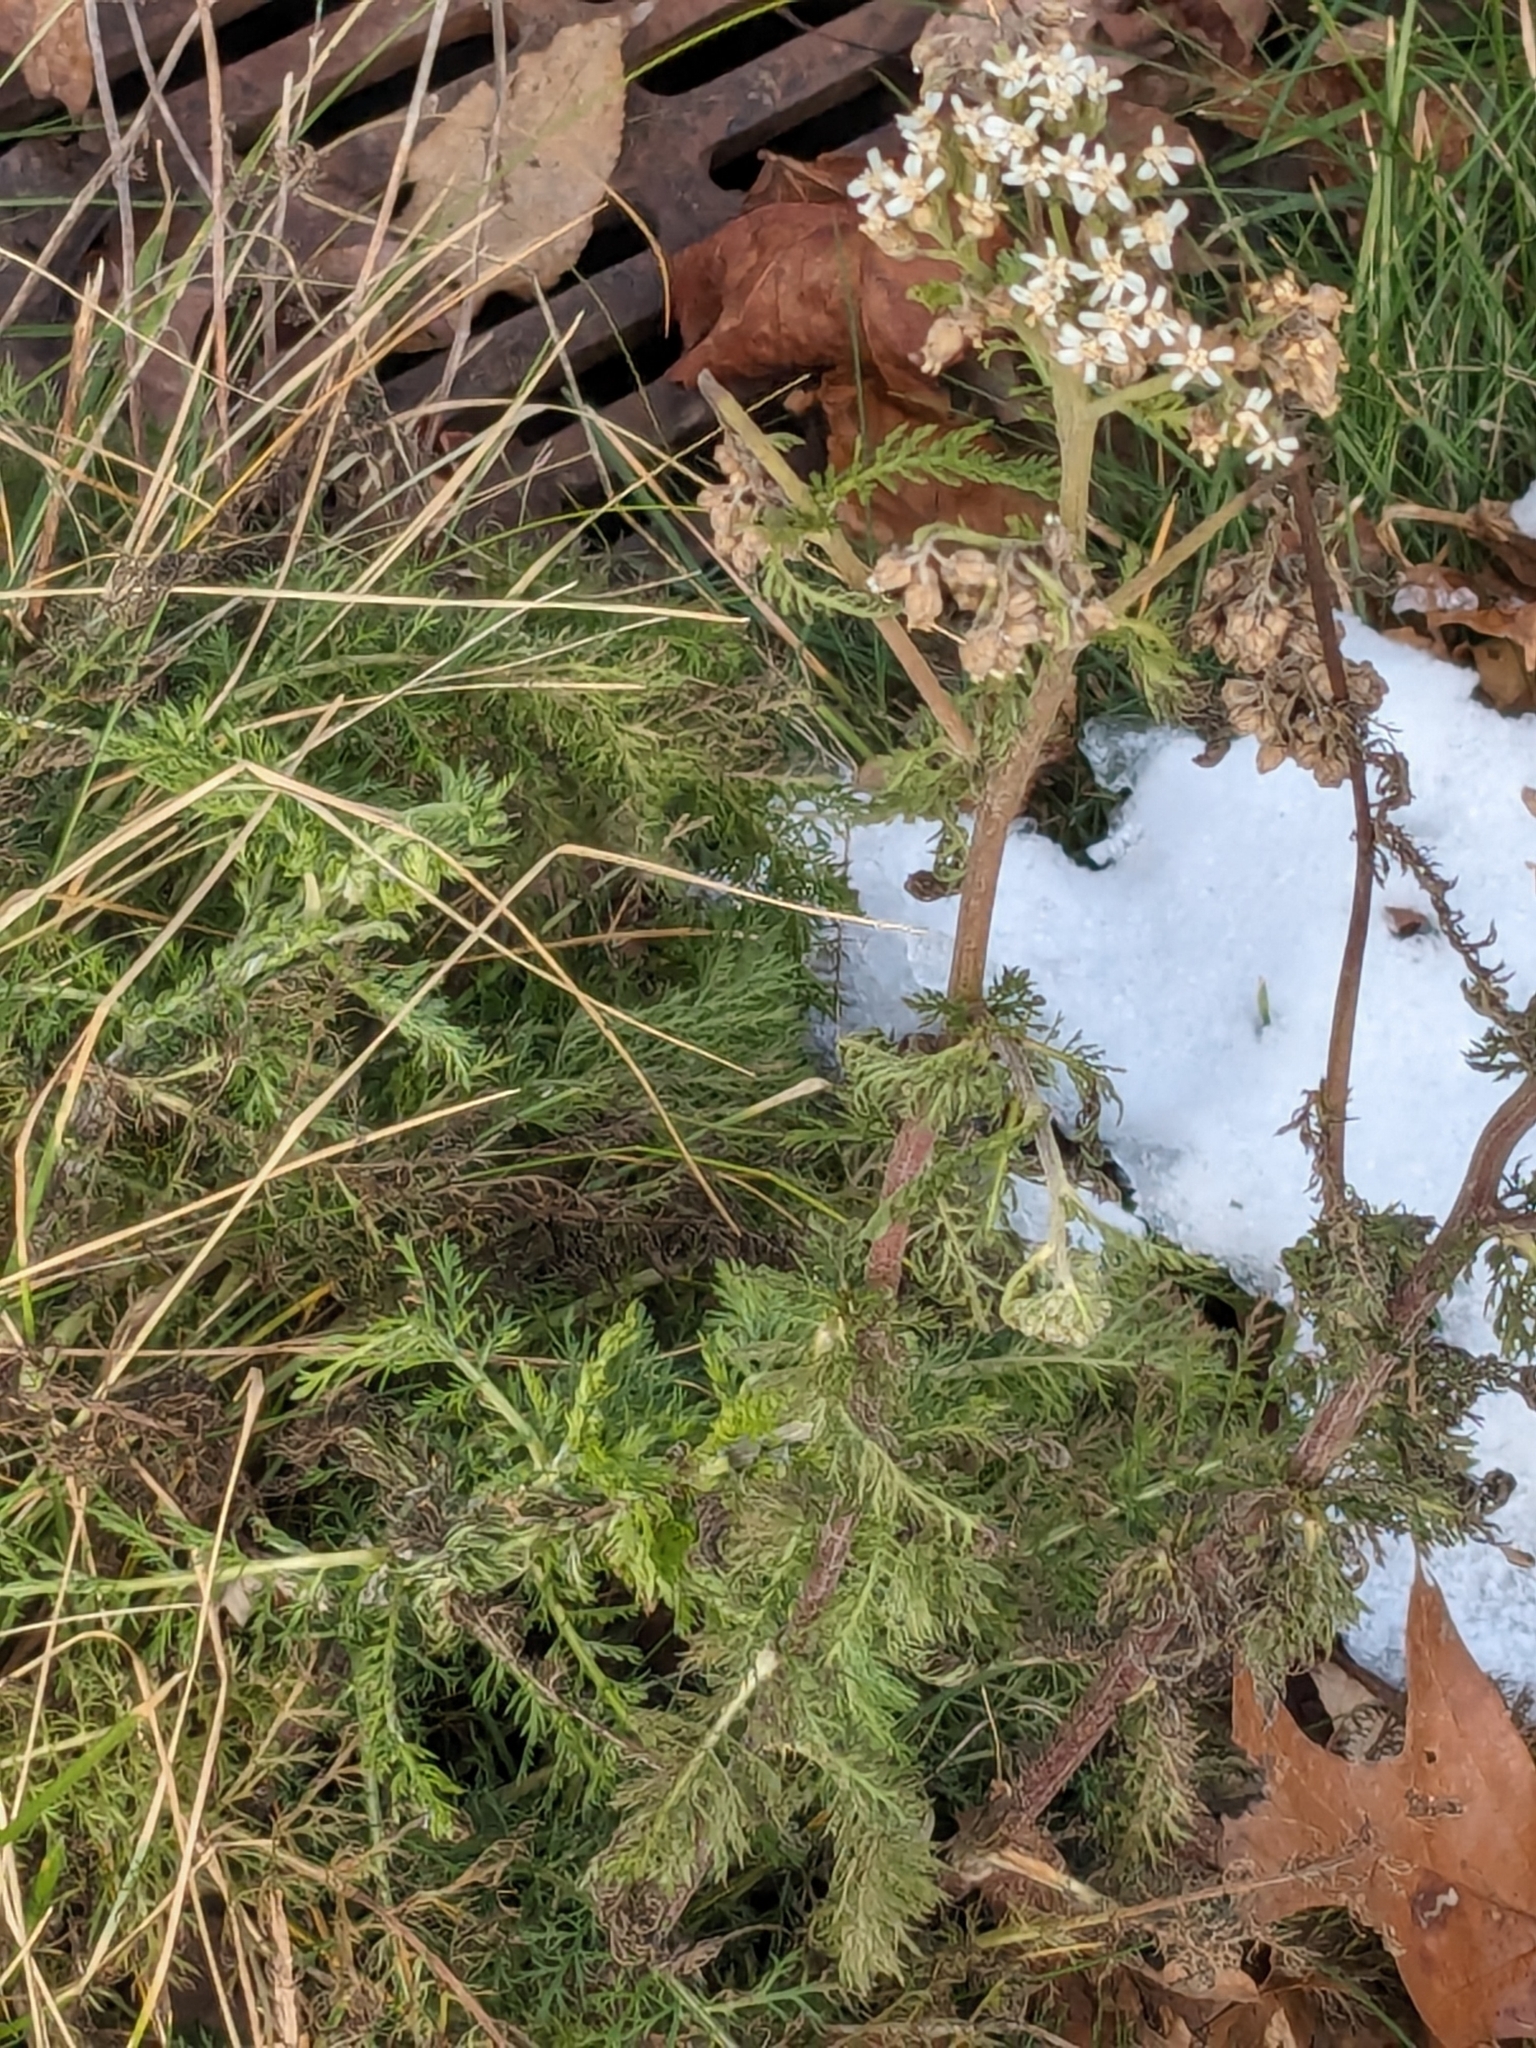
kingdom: Plantae
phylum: Tracheophyta
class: Magnoliopsida
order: Asterales
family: Asteraceae
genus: Achillea
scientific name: Achillea millefolium
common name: Yarrow
